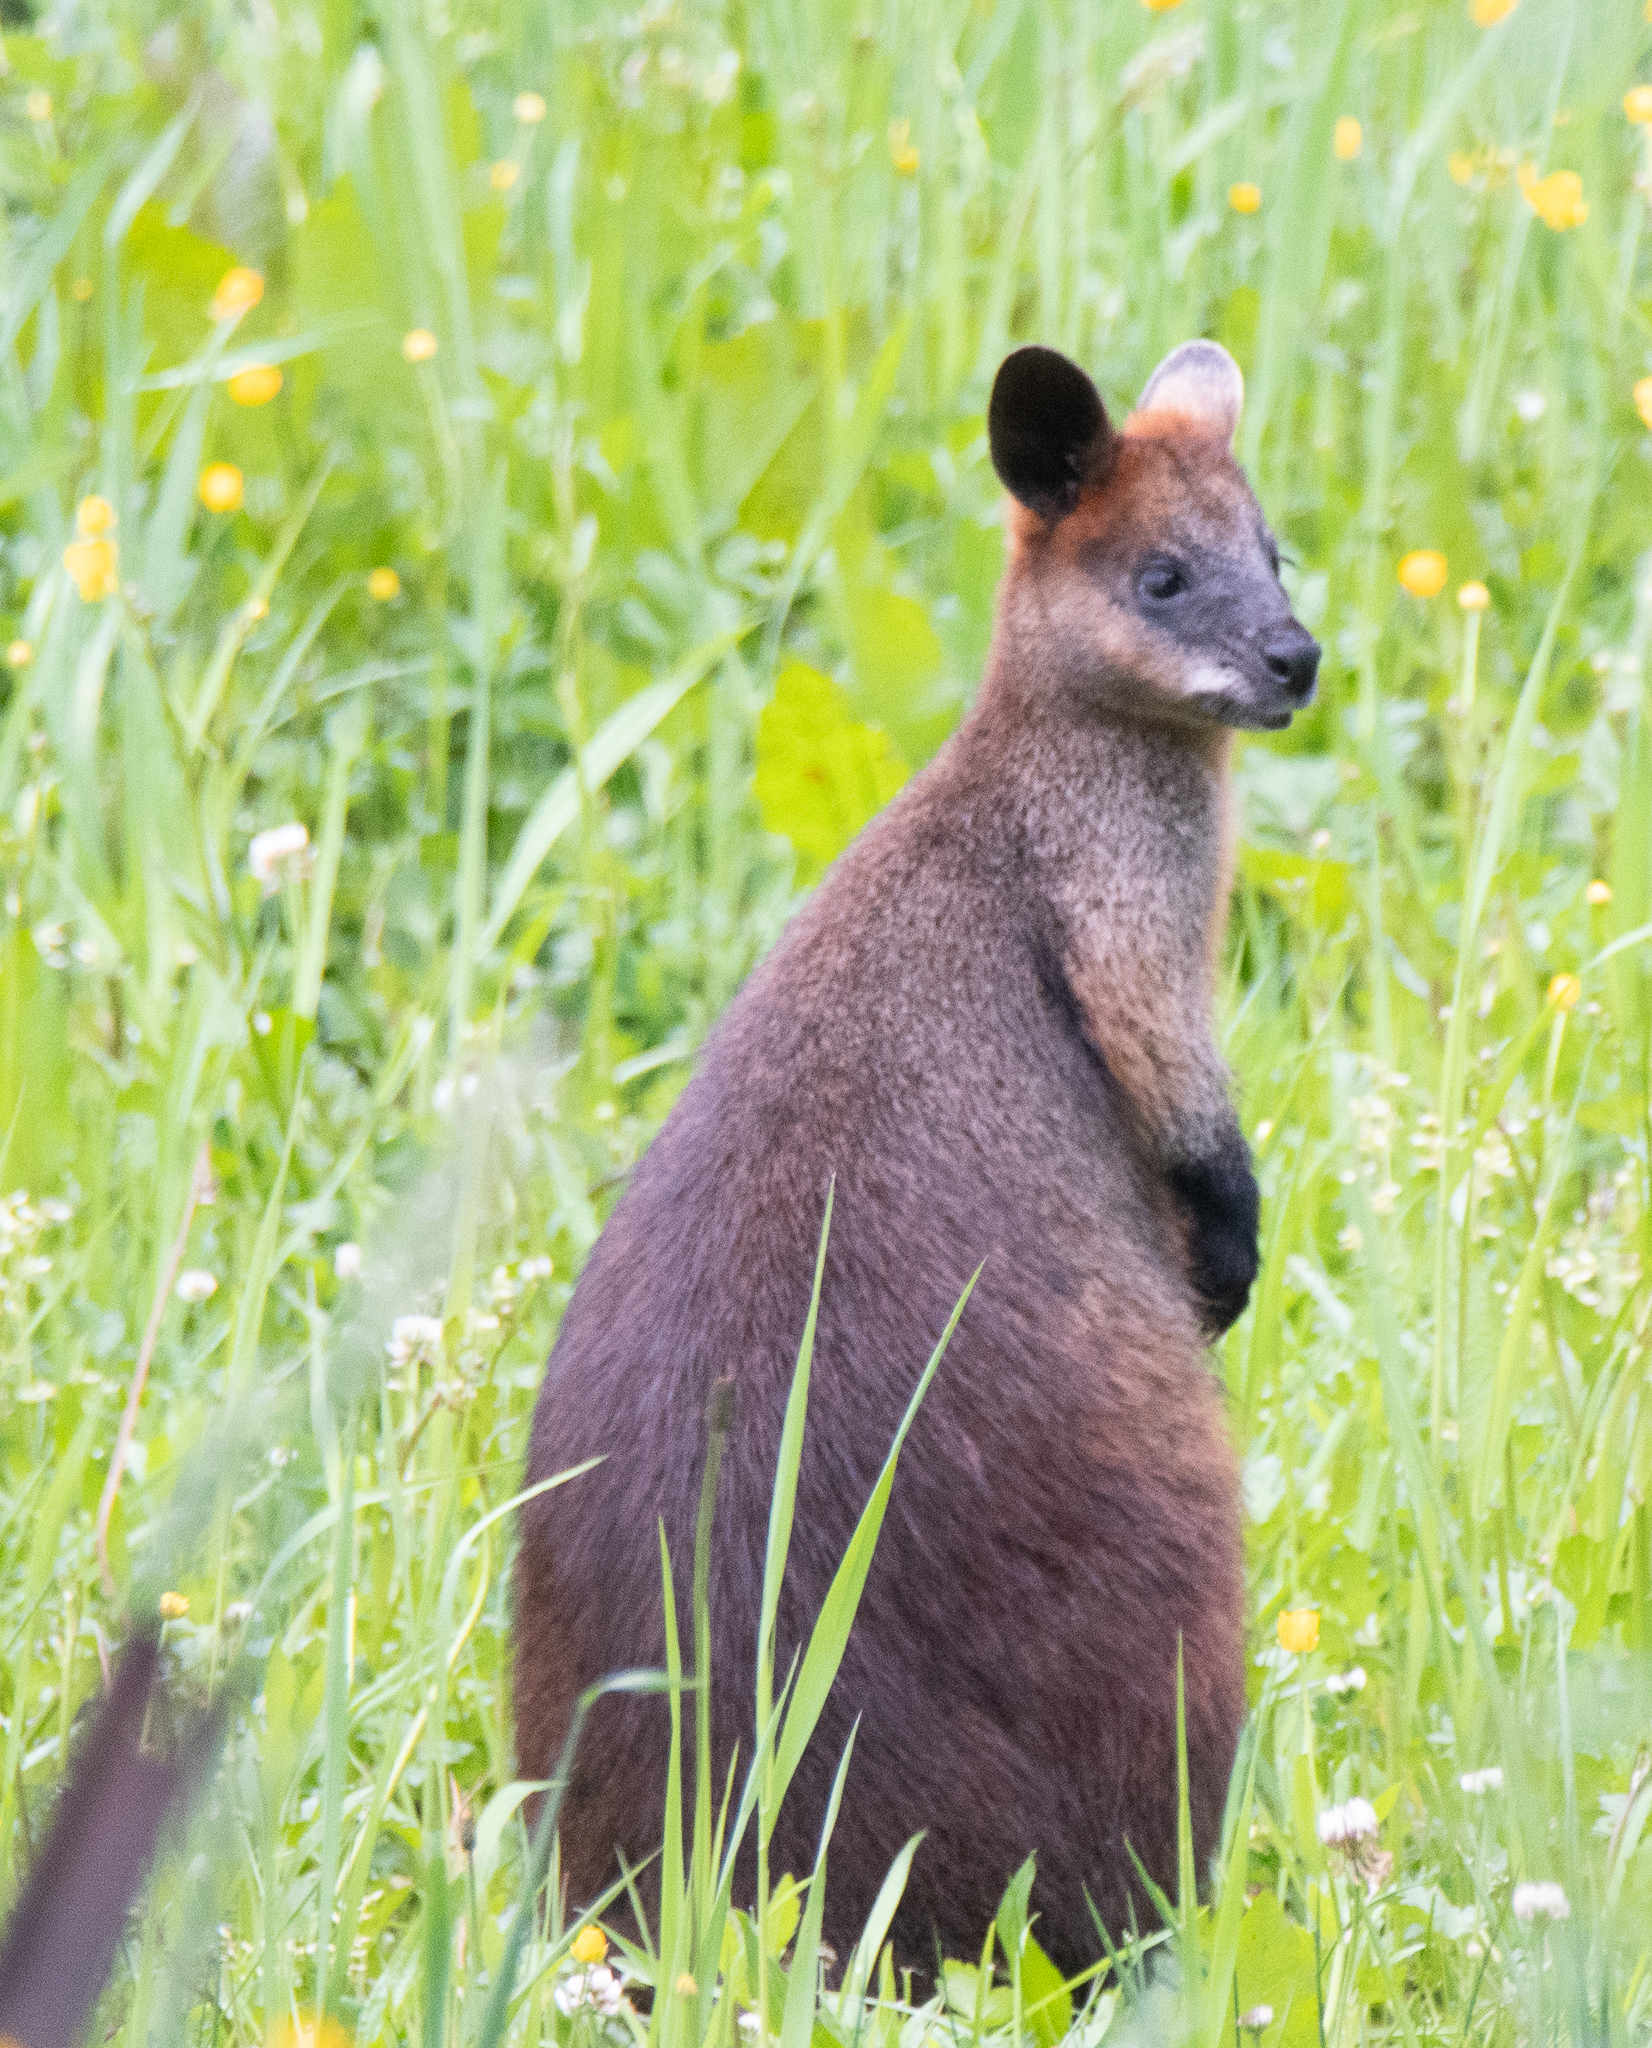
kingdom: Animalia
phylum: Chordata
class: Mammalia
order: Diprotodontia
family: Macropodidae
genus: Wallabia
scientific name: Wallabia bicolor
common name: Swamp wallaby
